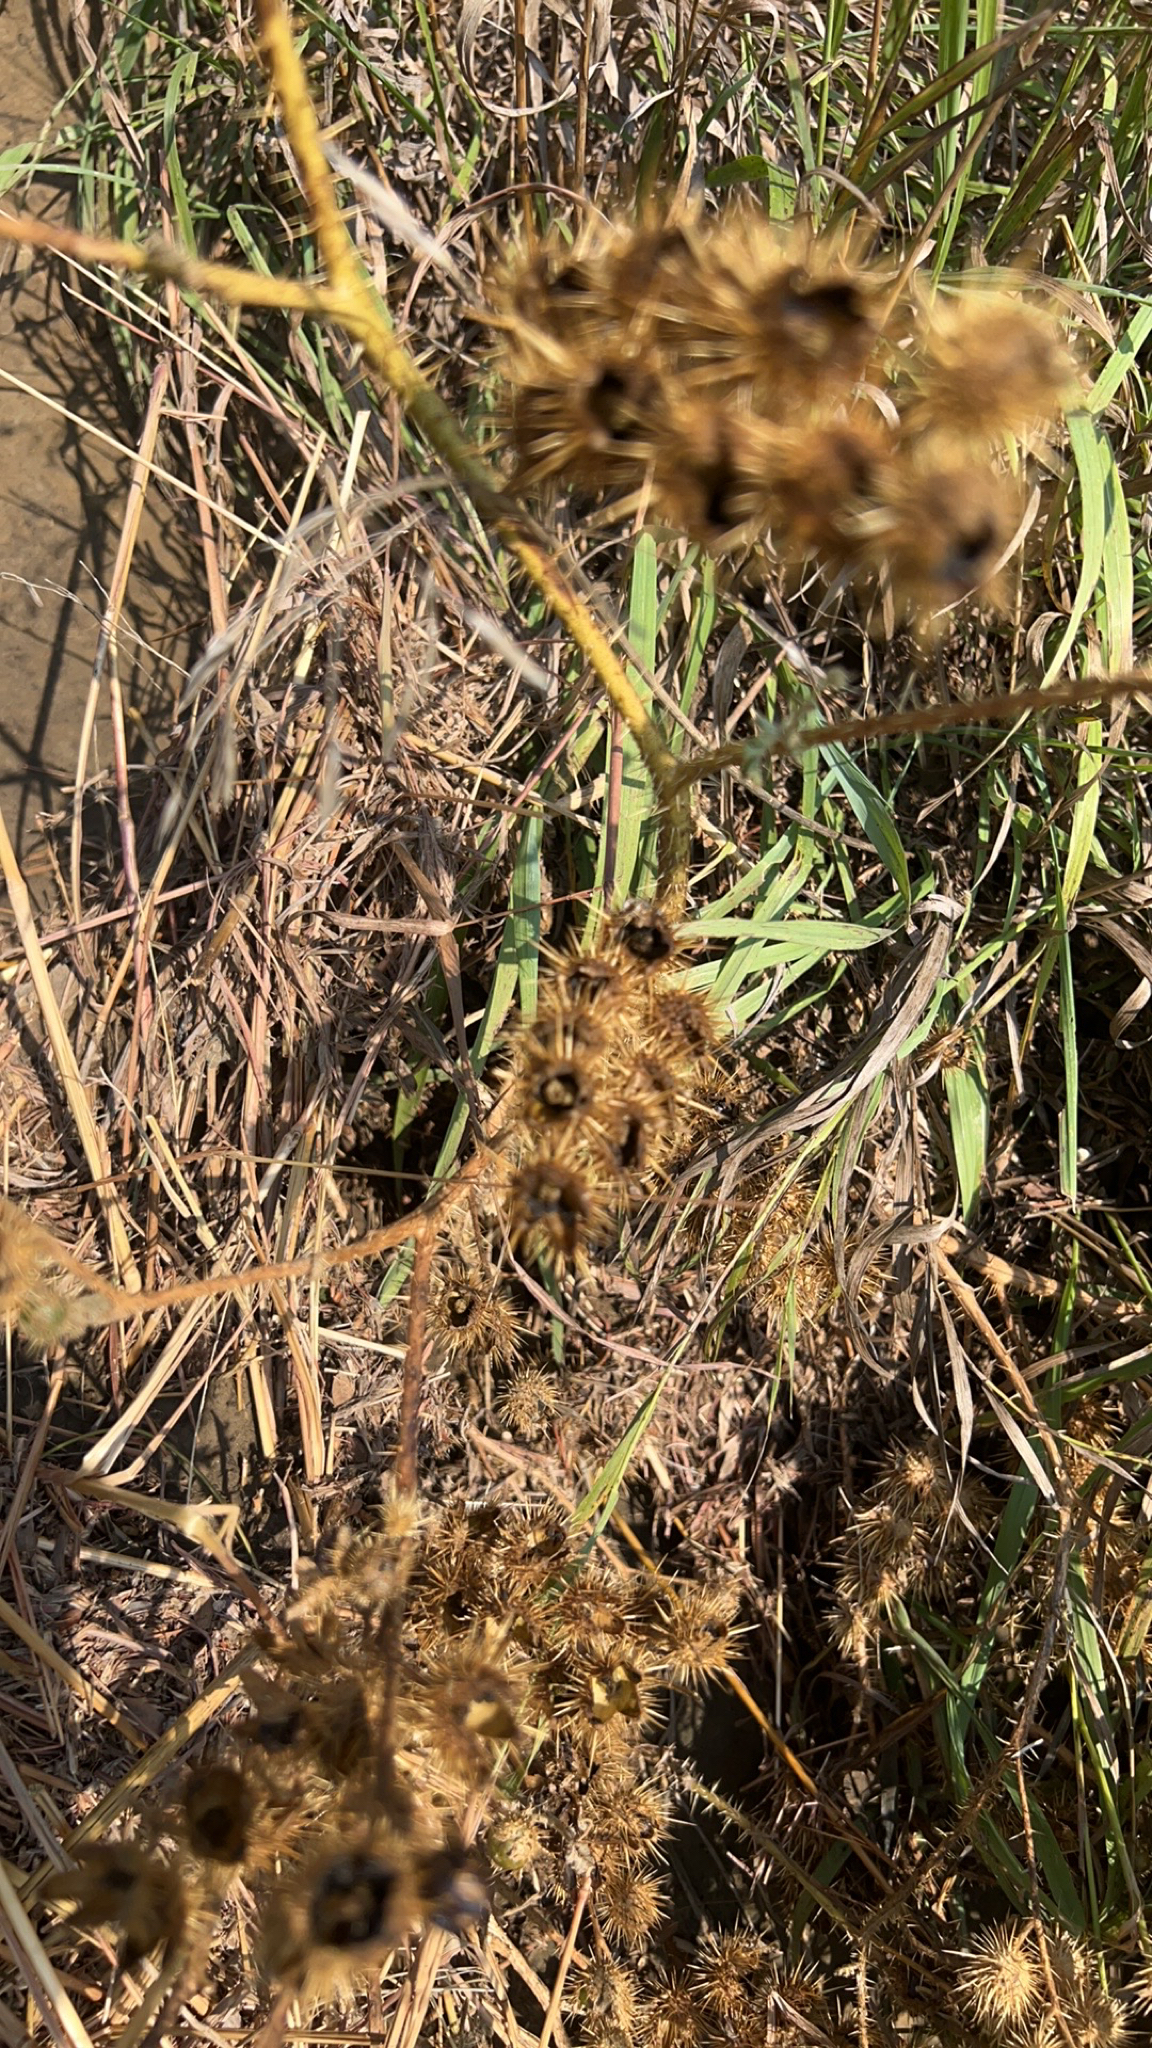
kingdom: Plantae
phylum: Tracheophyta
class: Magnoliopsida
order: Solanales
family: Solanaceae
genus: Solanum
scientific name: Solanum angustifolium
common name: Buffalobur nightshade
